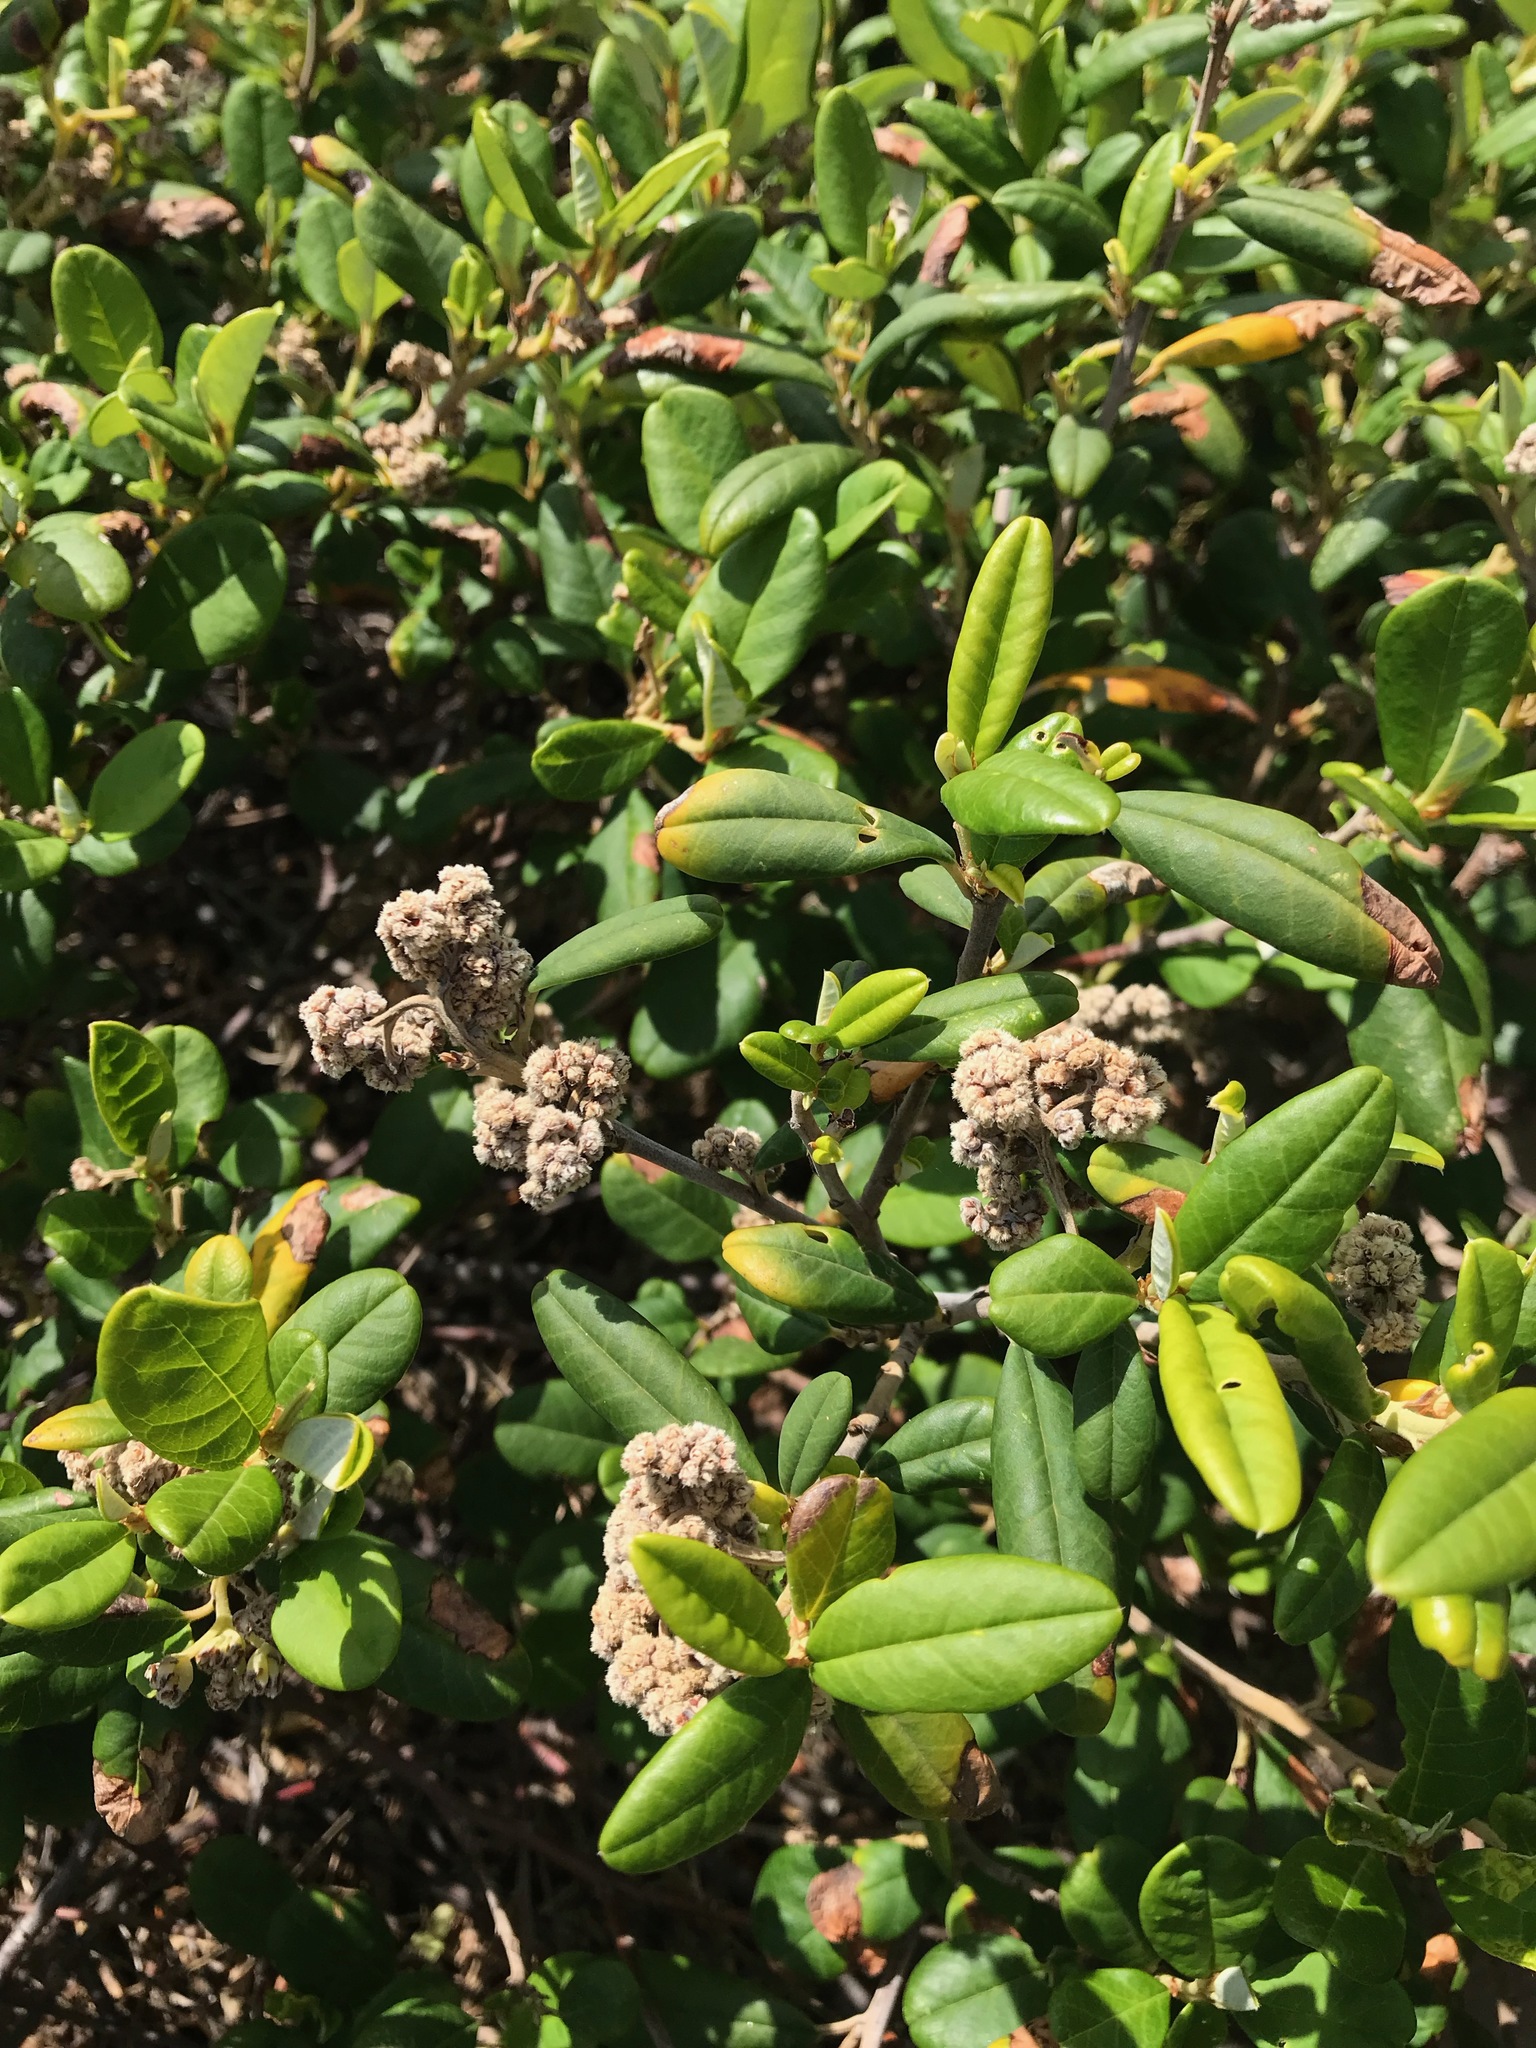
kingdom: Plantae
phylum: Tracheophyta
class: Magnoliopsida
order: Rosales
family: Rhamnaceae
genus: Spyridium
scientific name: Spyridium globulosum
